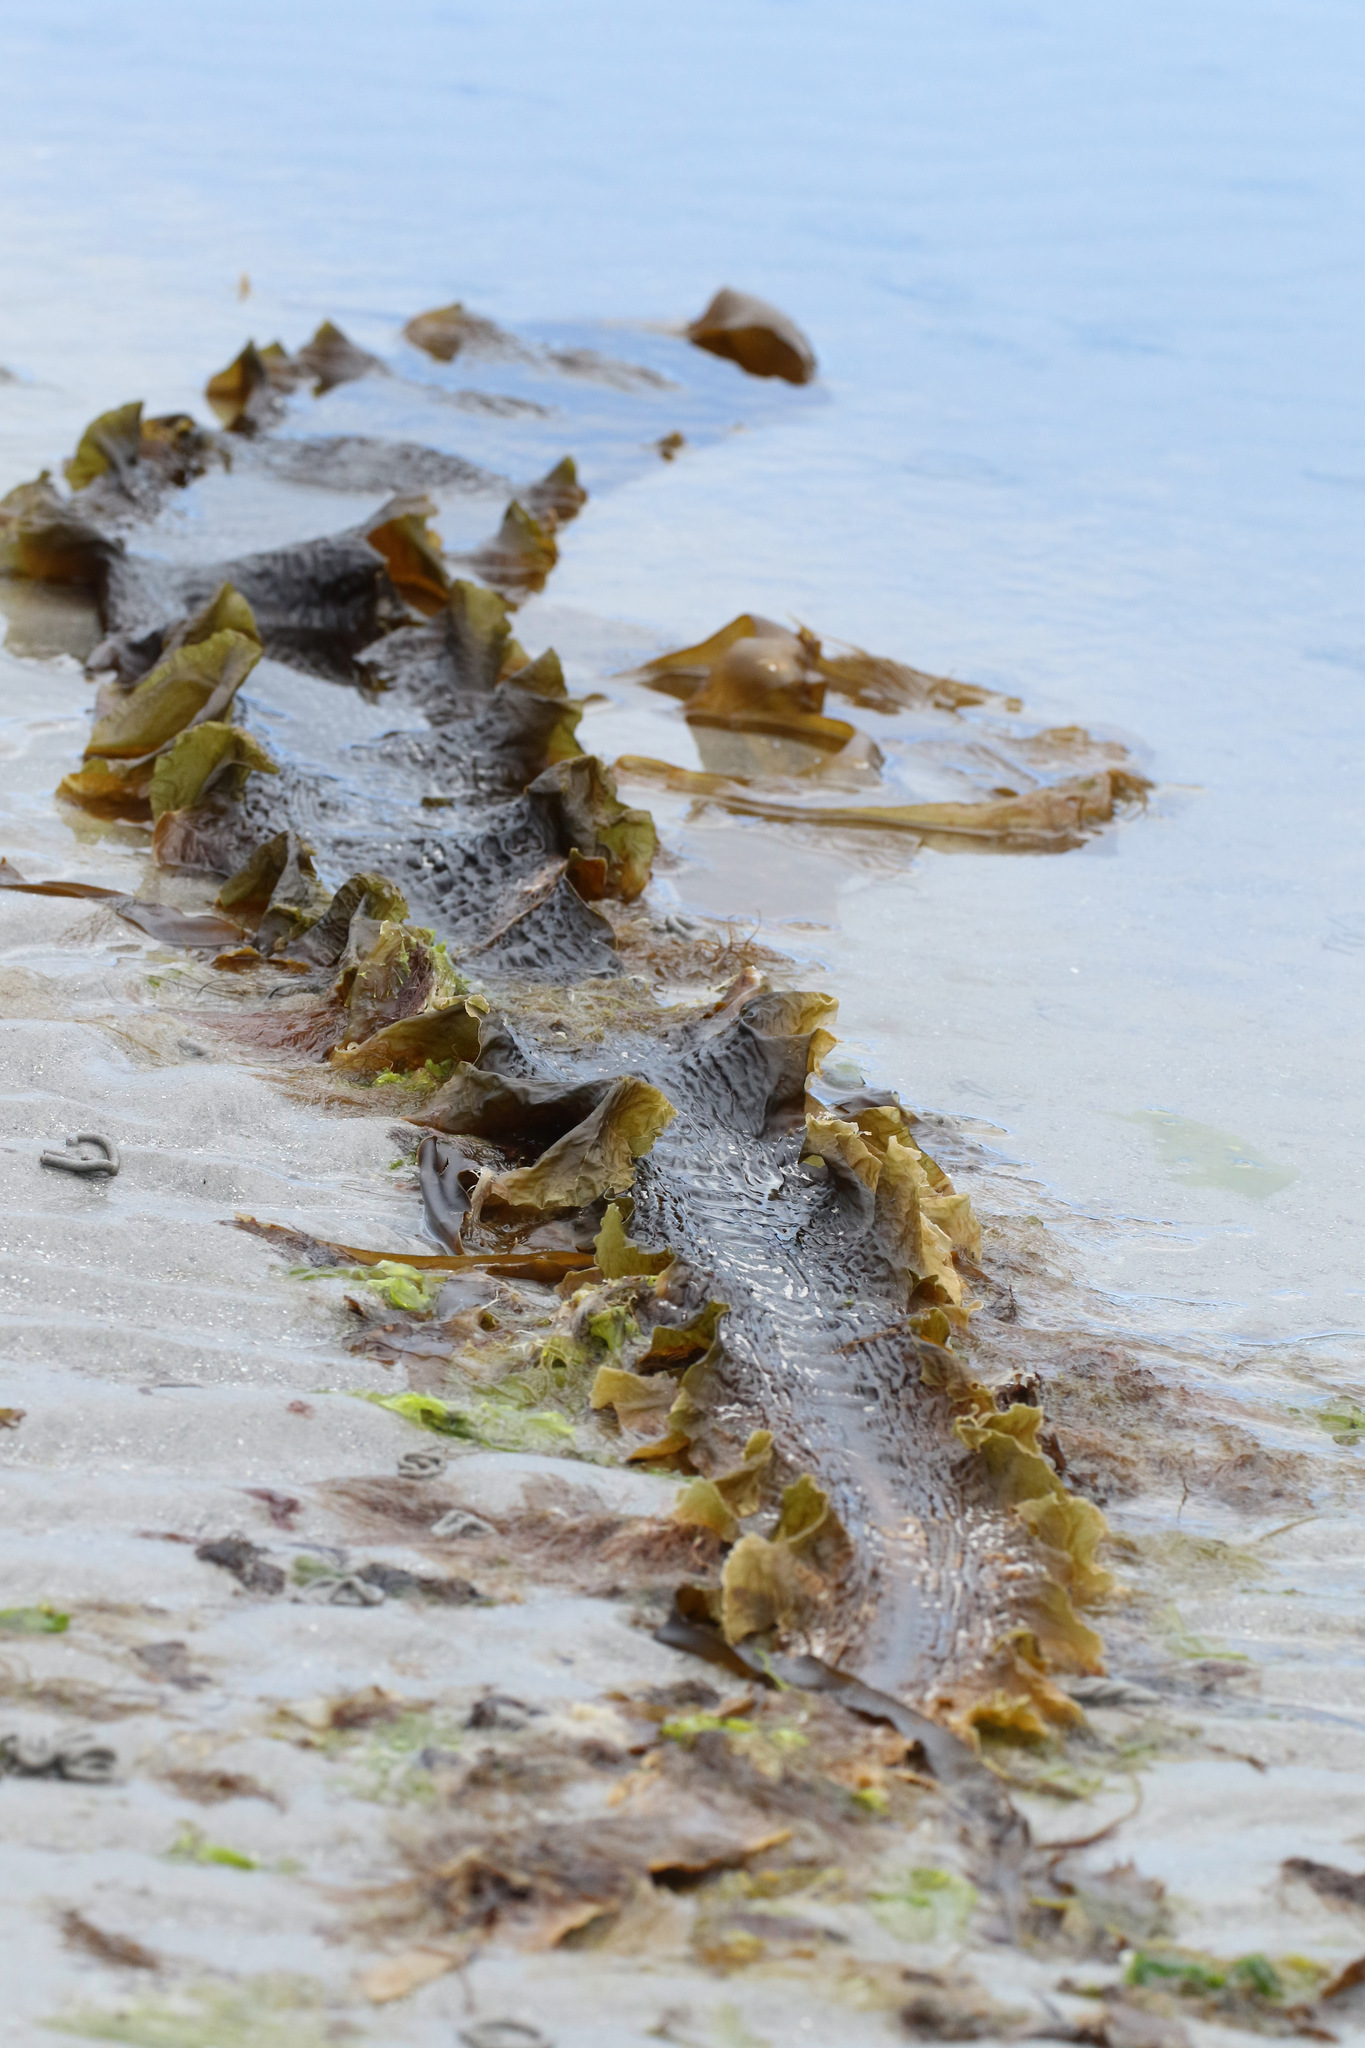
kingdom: Chromista
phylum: Ochrophyta
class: Phaeophyceae
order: Laminariales
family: Laminariaceae
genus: Saccharina
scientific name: Saccharina latissima
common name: Poor man's weather glass
